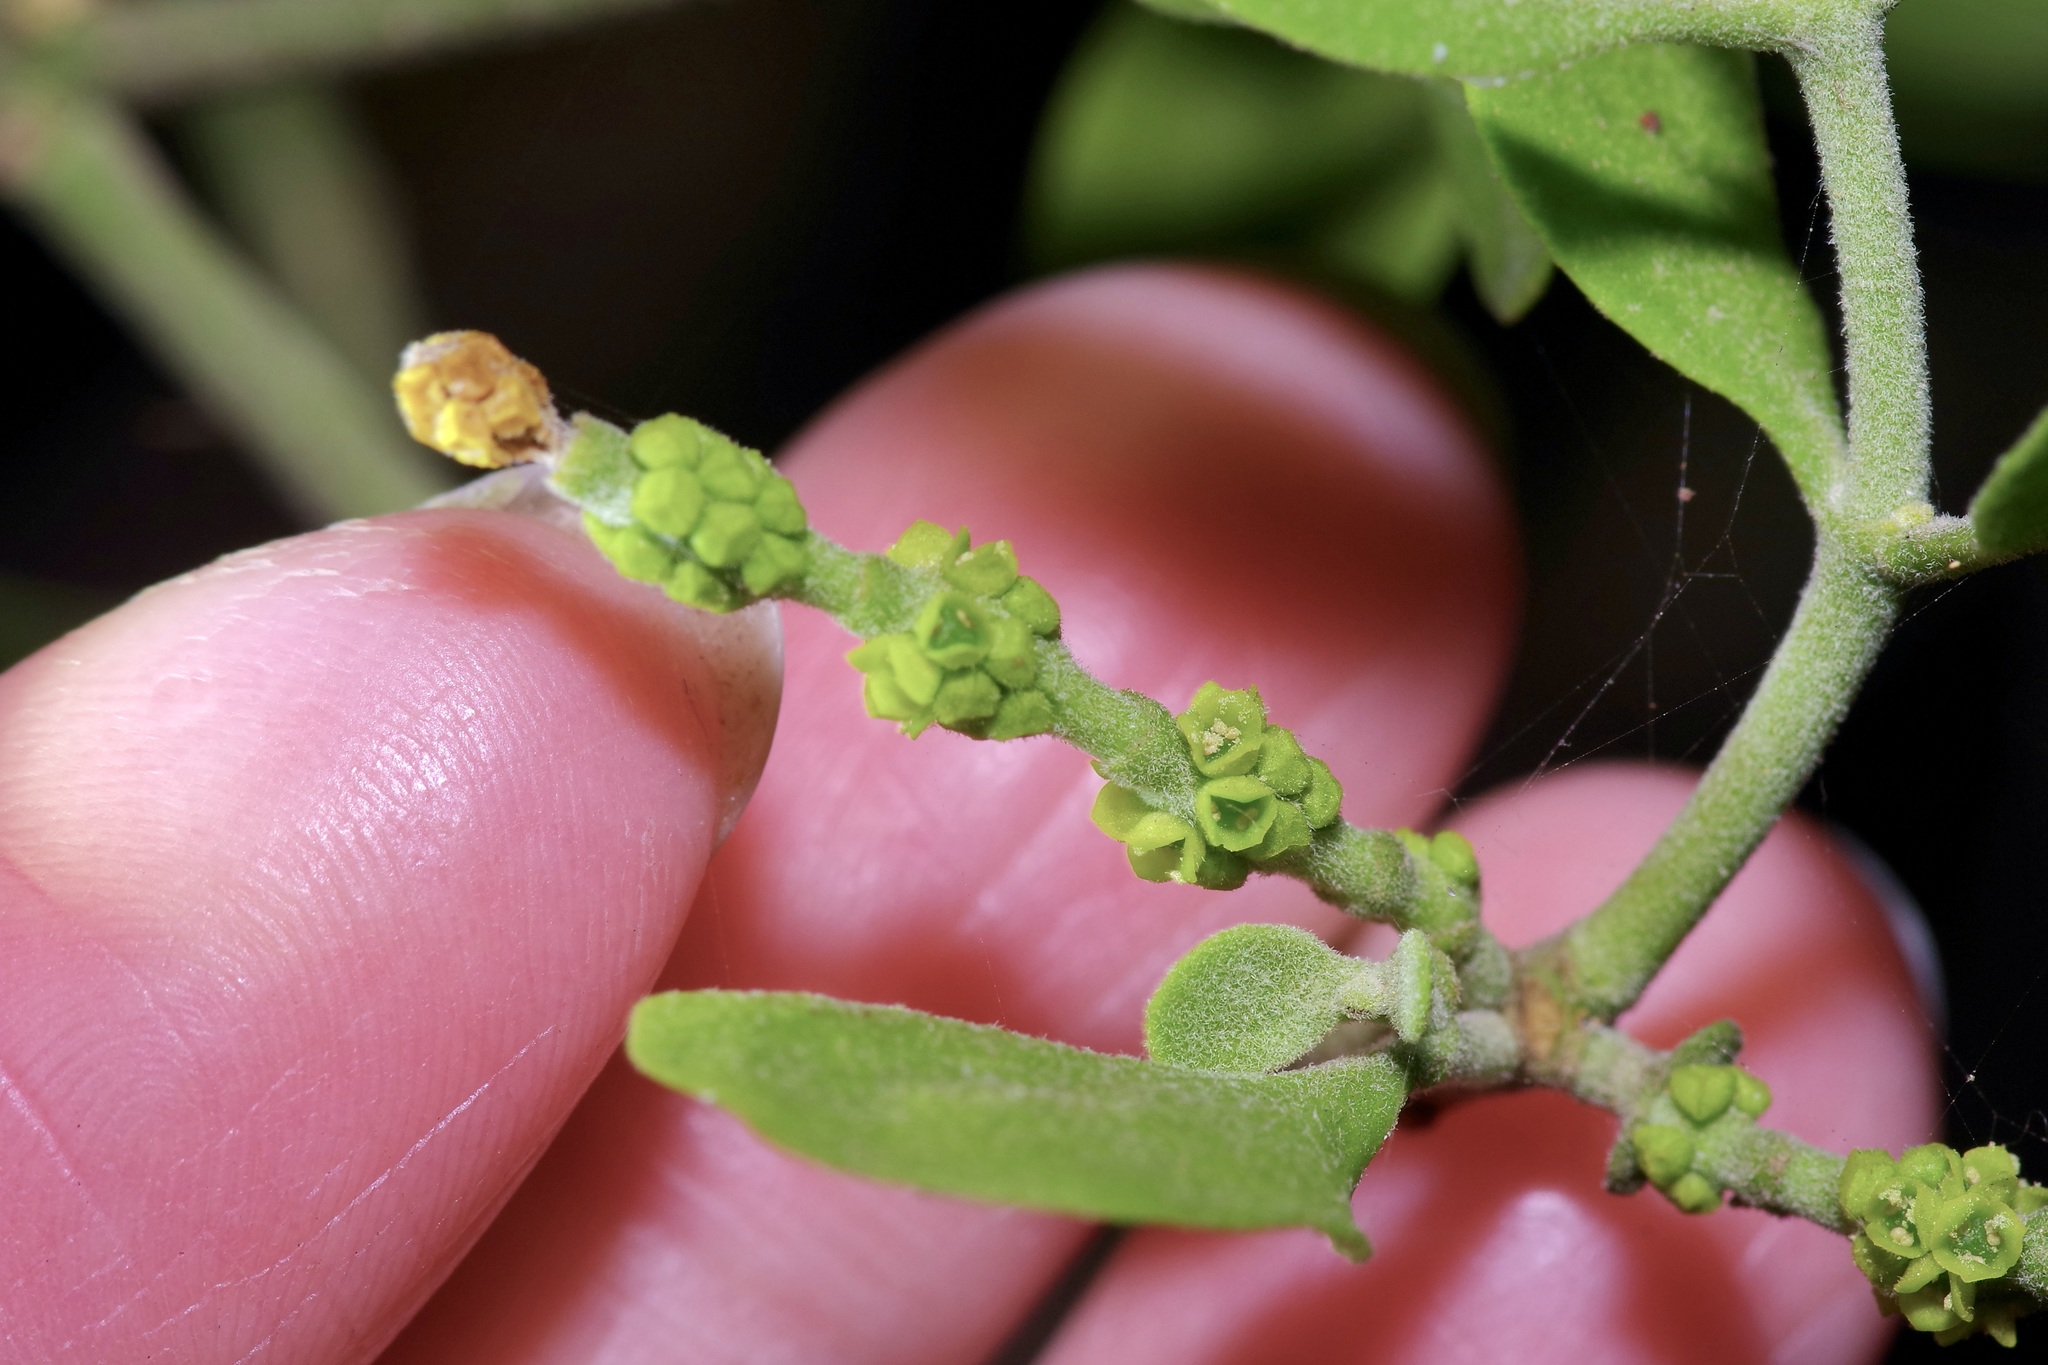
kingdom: Plantae
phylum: Tracheophyta
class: Magnoliopsida
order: Santalales
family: Viscaceae
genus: Phoradendron
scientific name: Phoradendron leucarpum
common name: Pacific mistletoe
